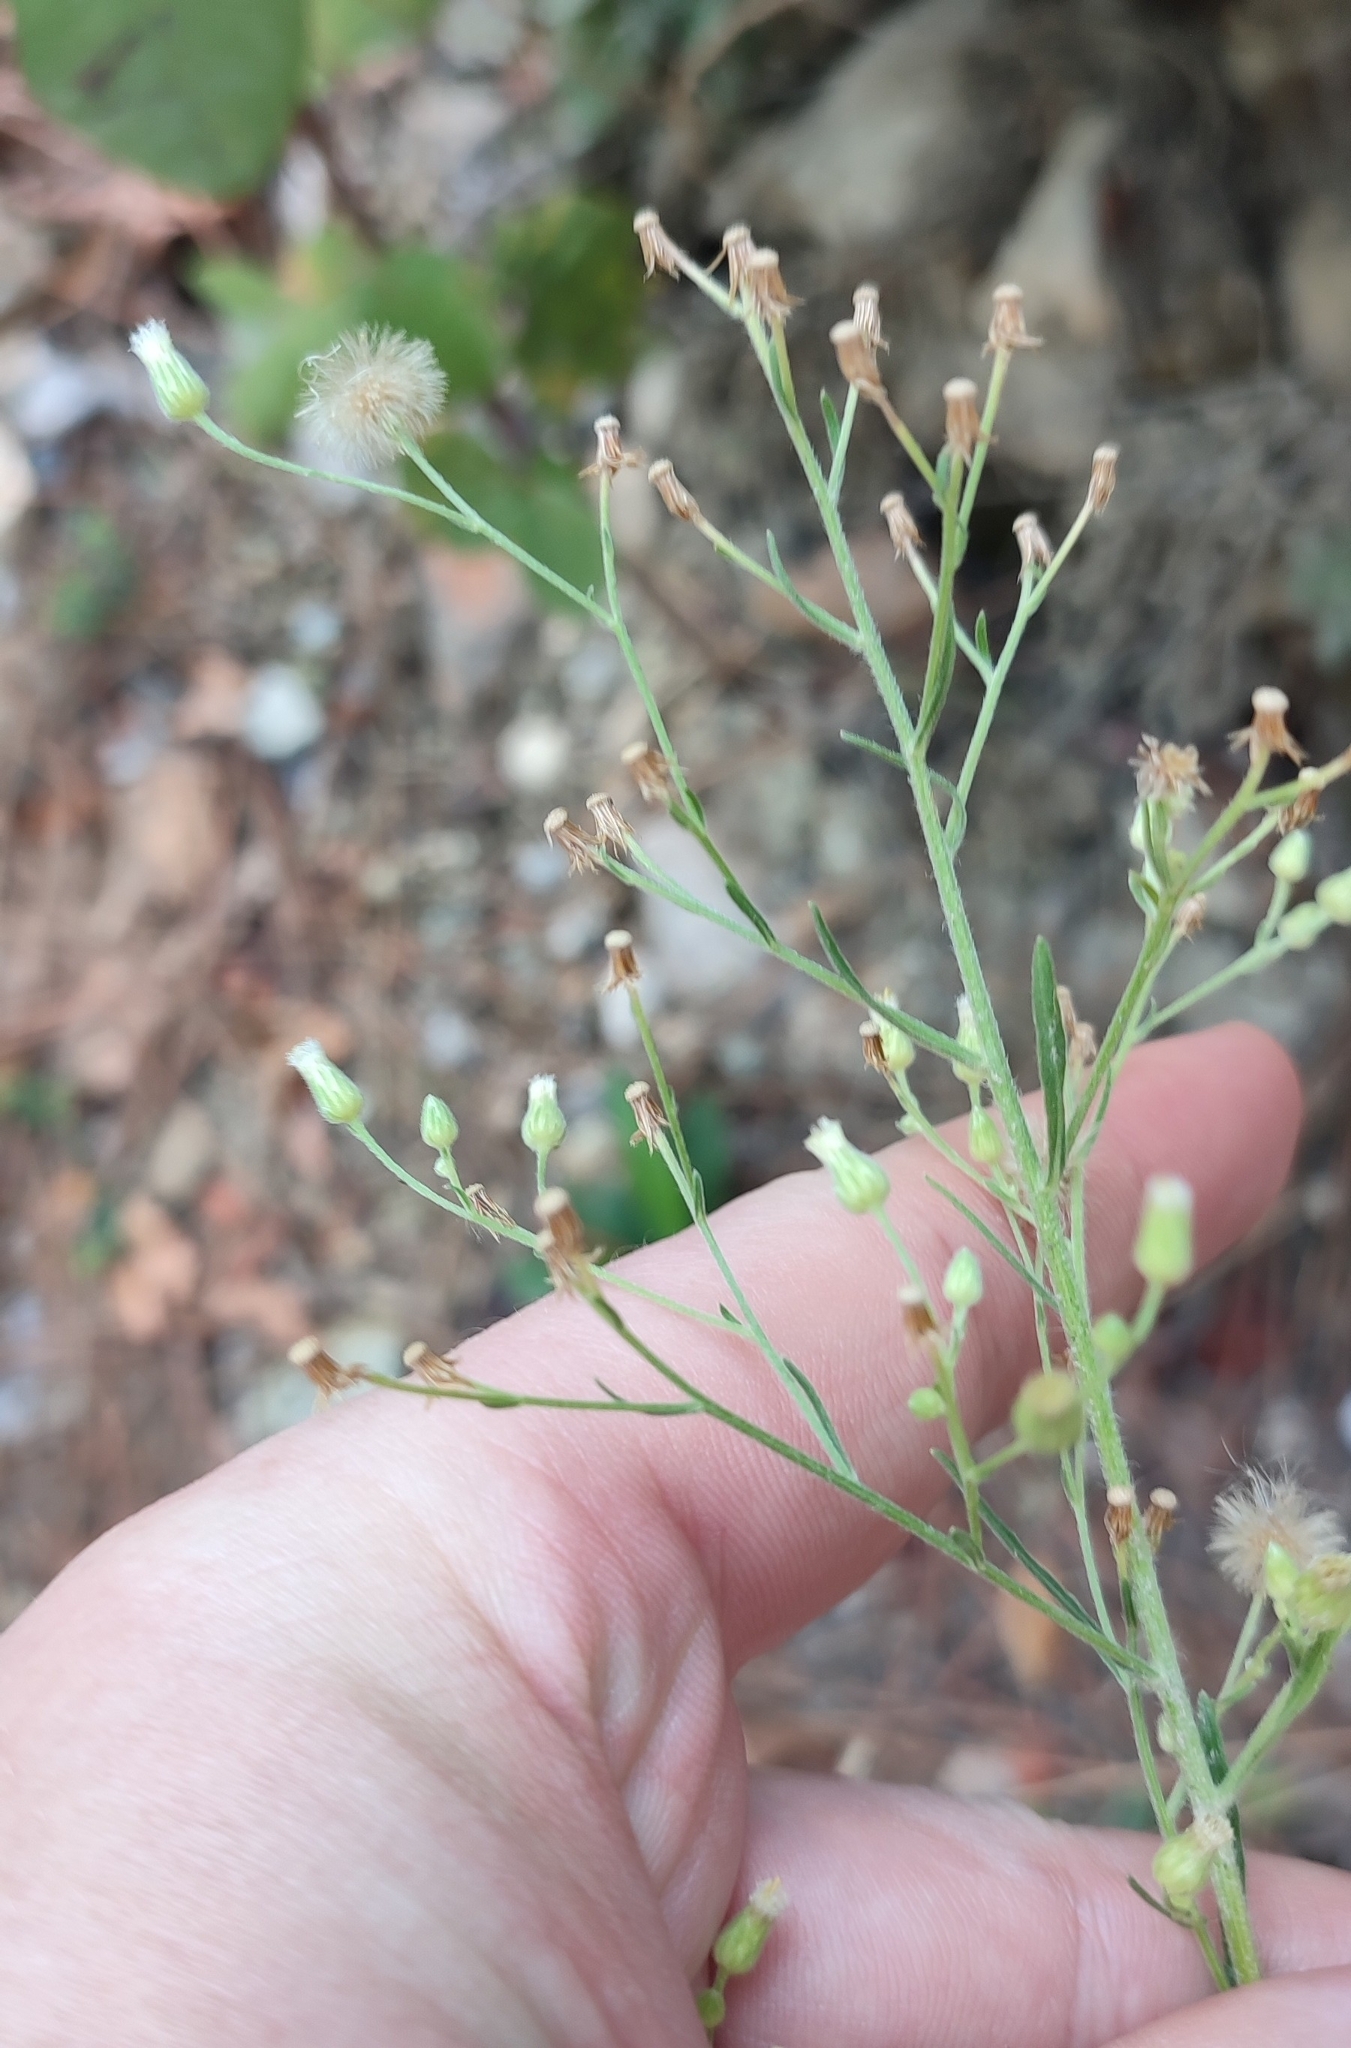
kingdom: Plantae
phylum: Tracheophyta
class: Magnoliopsida
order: Asterales
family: Asteraceae
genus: Erigeron
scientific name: Erigeron sumatrensis
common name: Daisy
